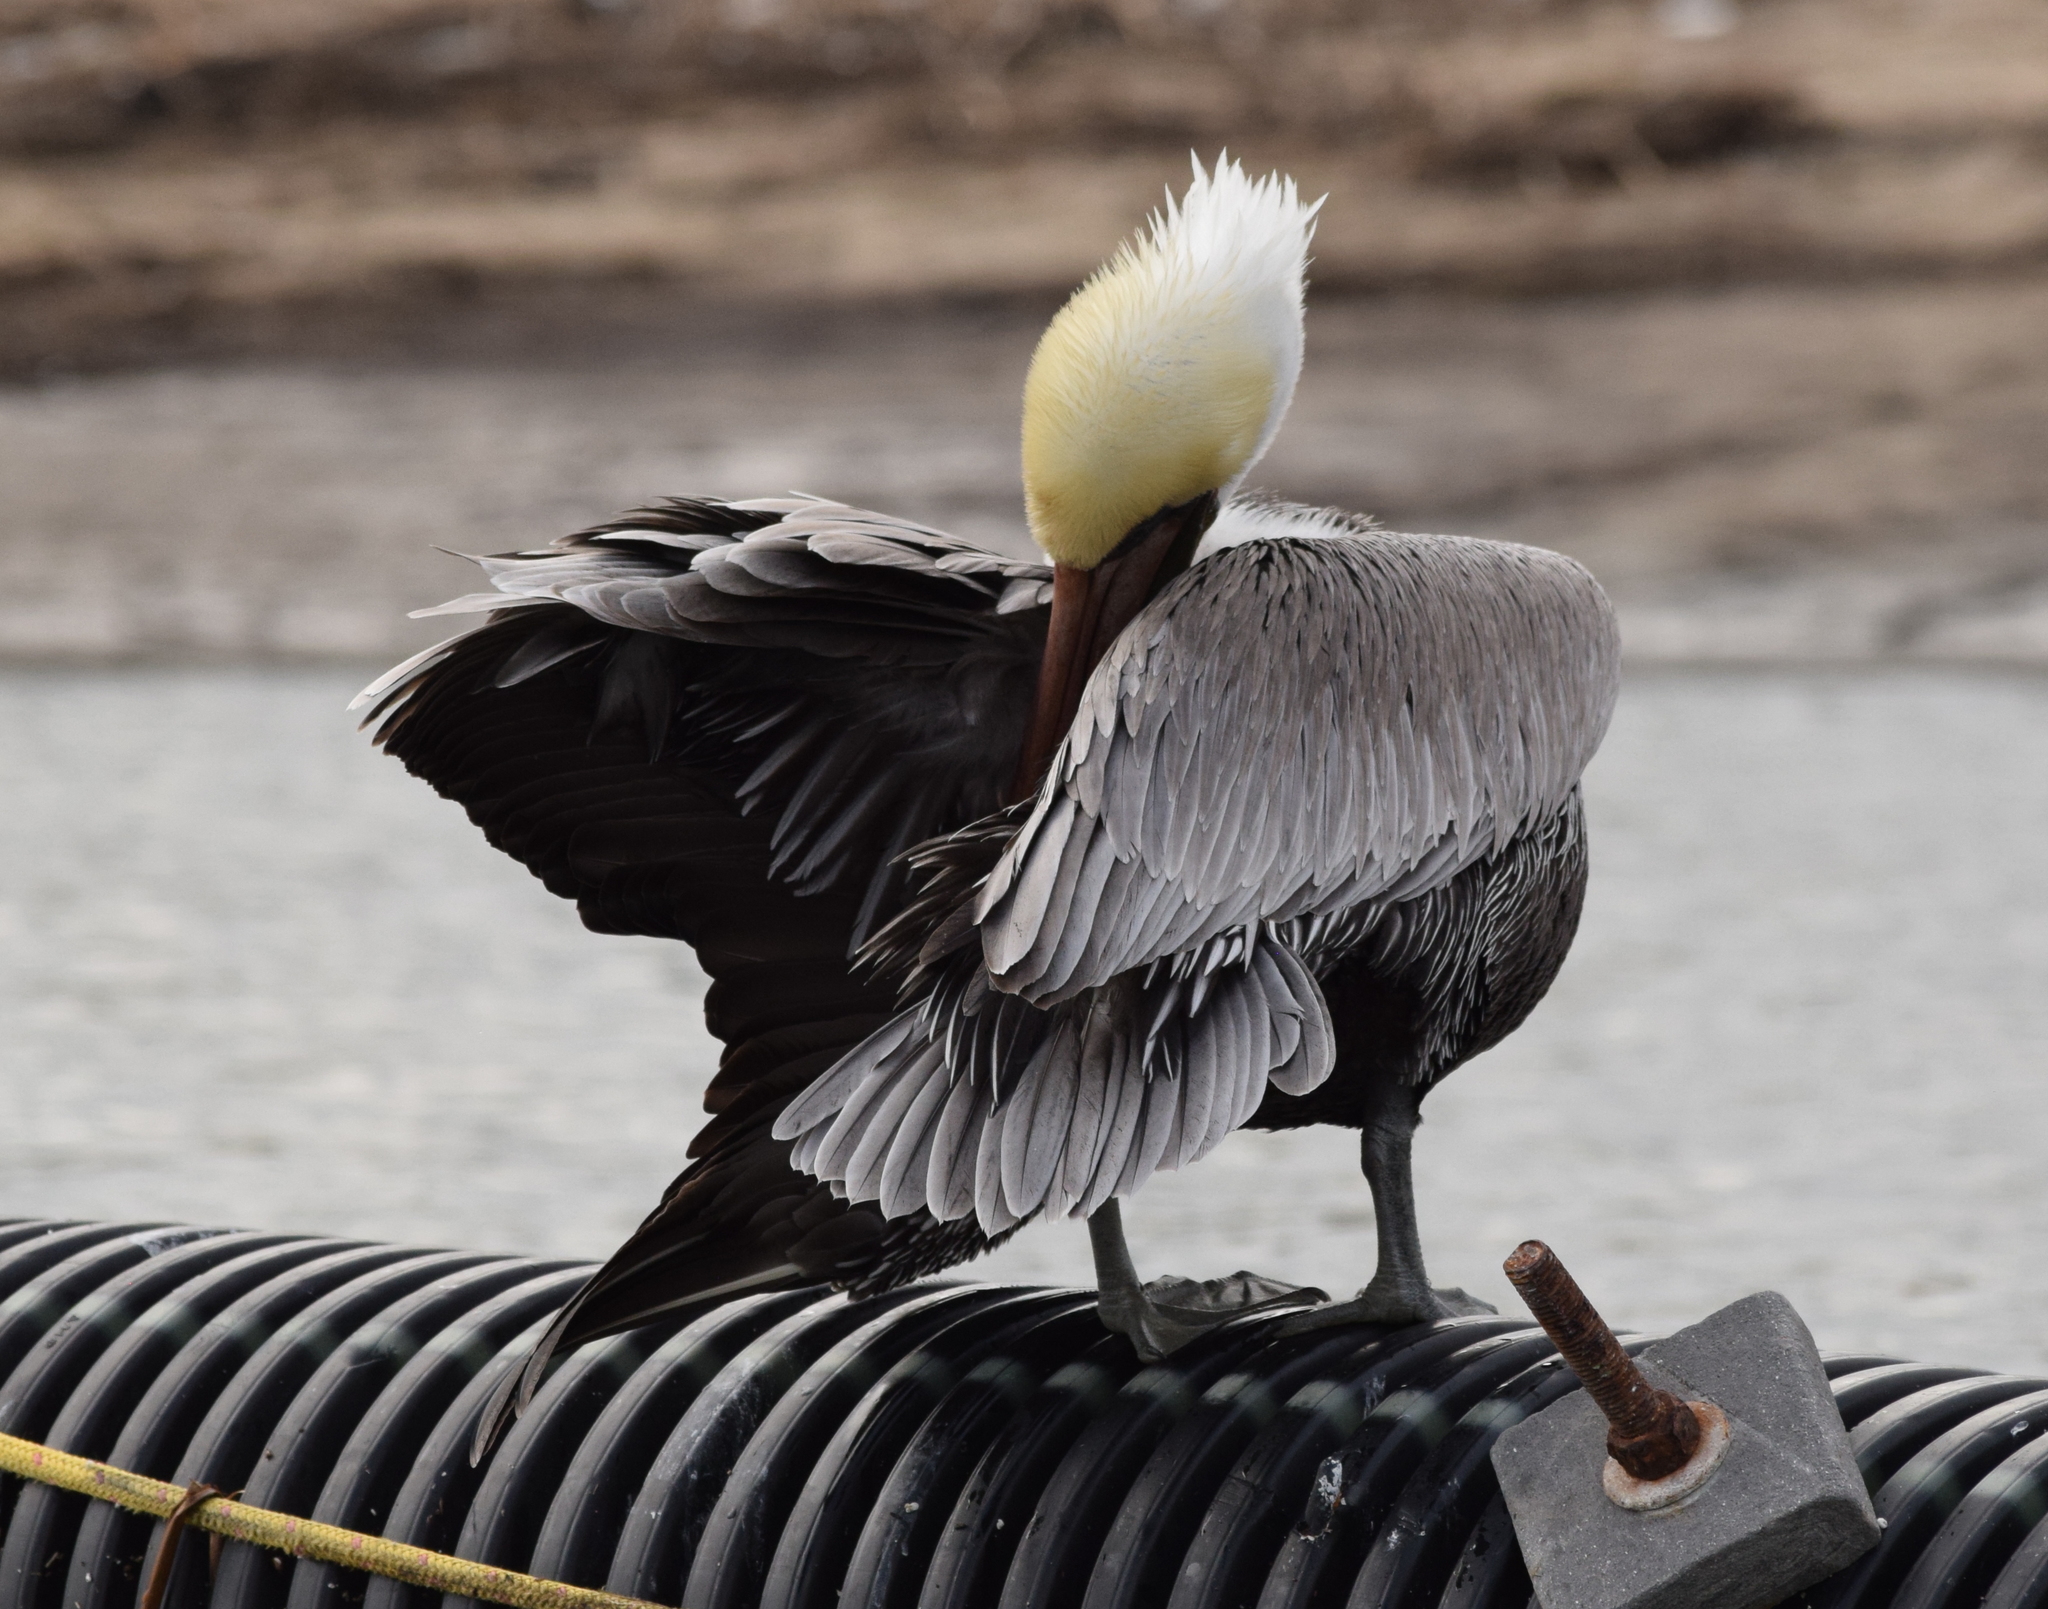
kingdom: Animalia
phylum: Chordata
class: Aves
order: Pelecaniformes
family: Pelecanidae
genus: Pelecanus
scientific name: Pelecanus occidentalis
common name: Brown pelican
